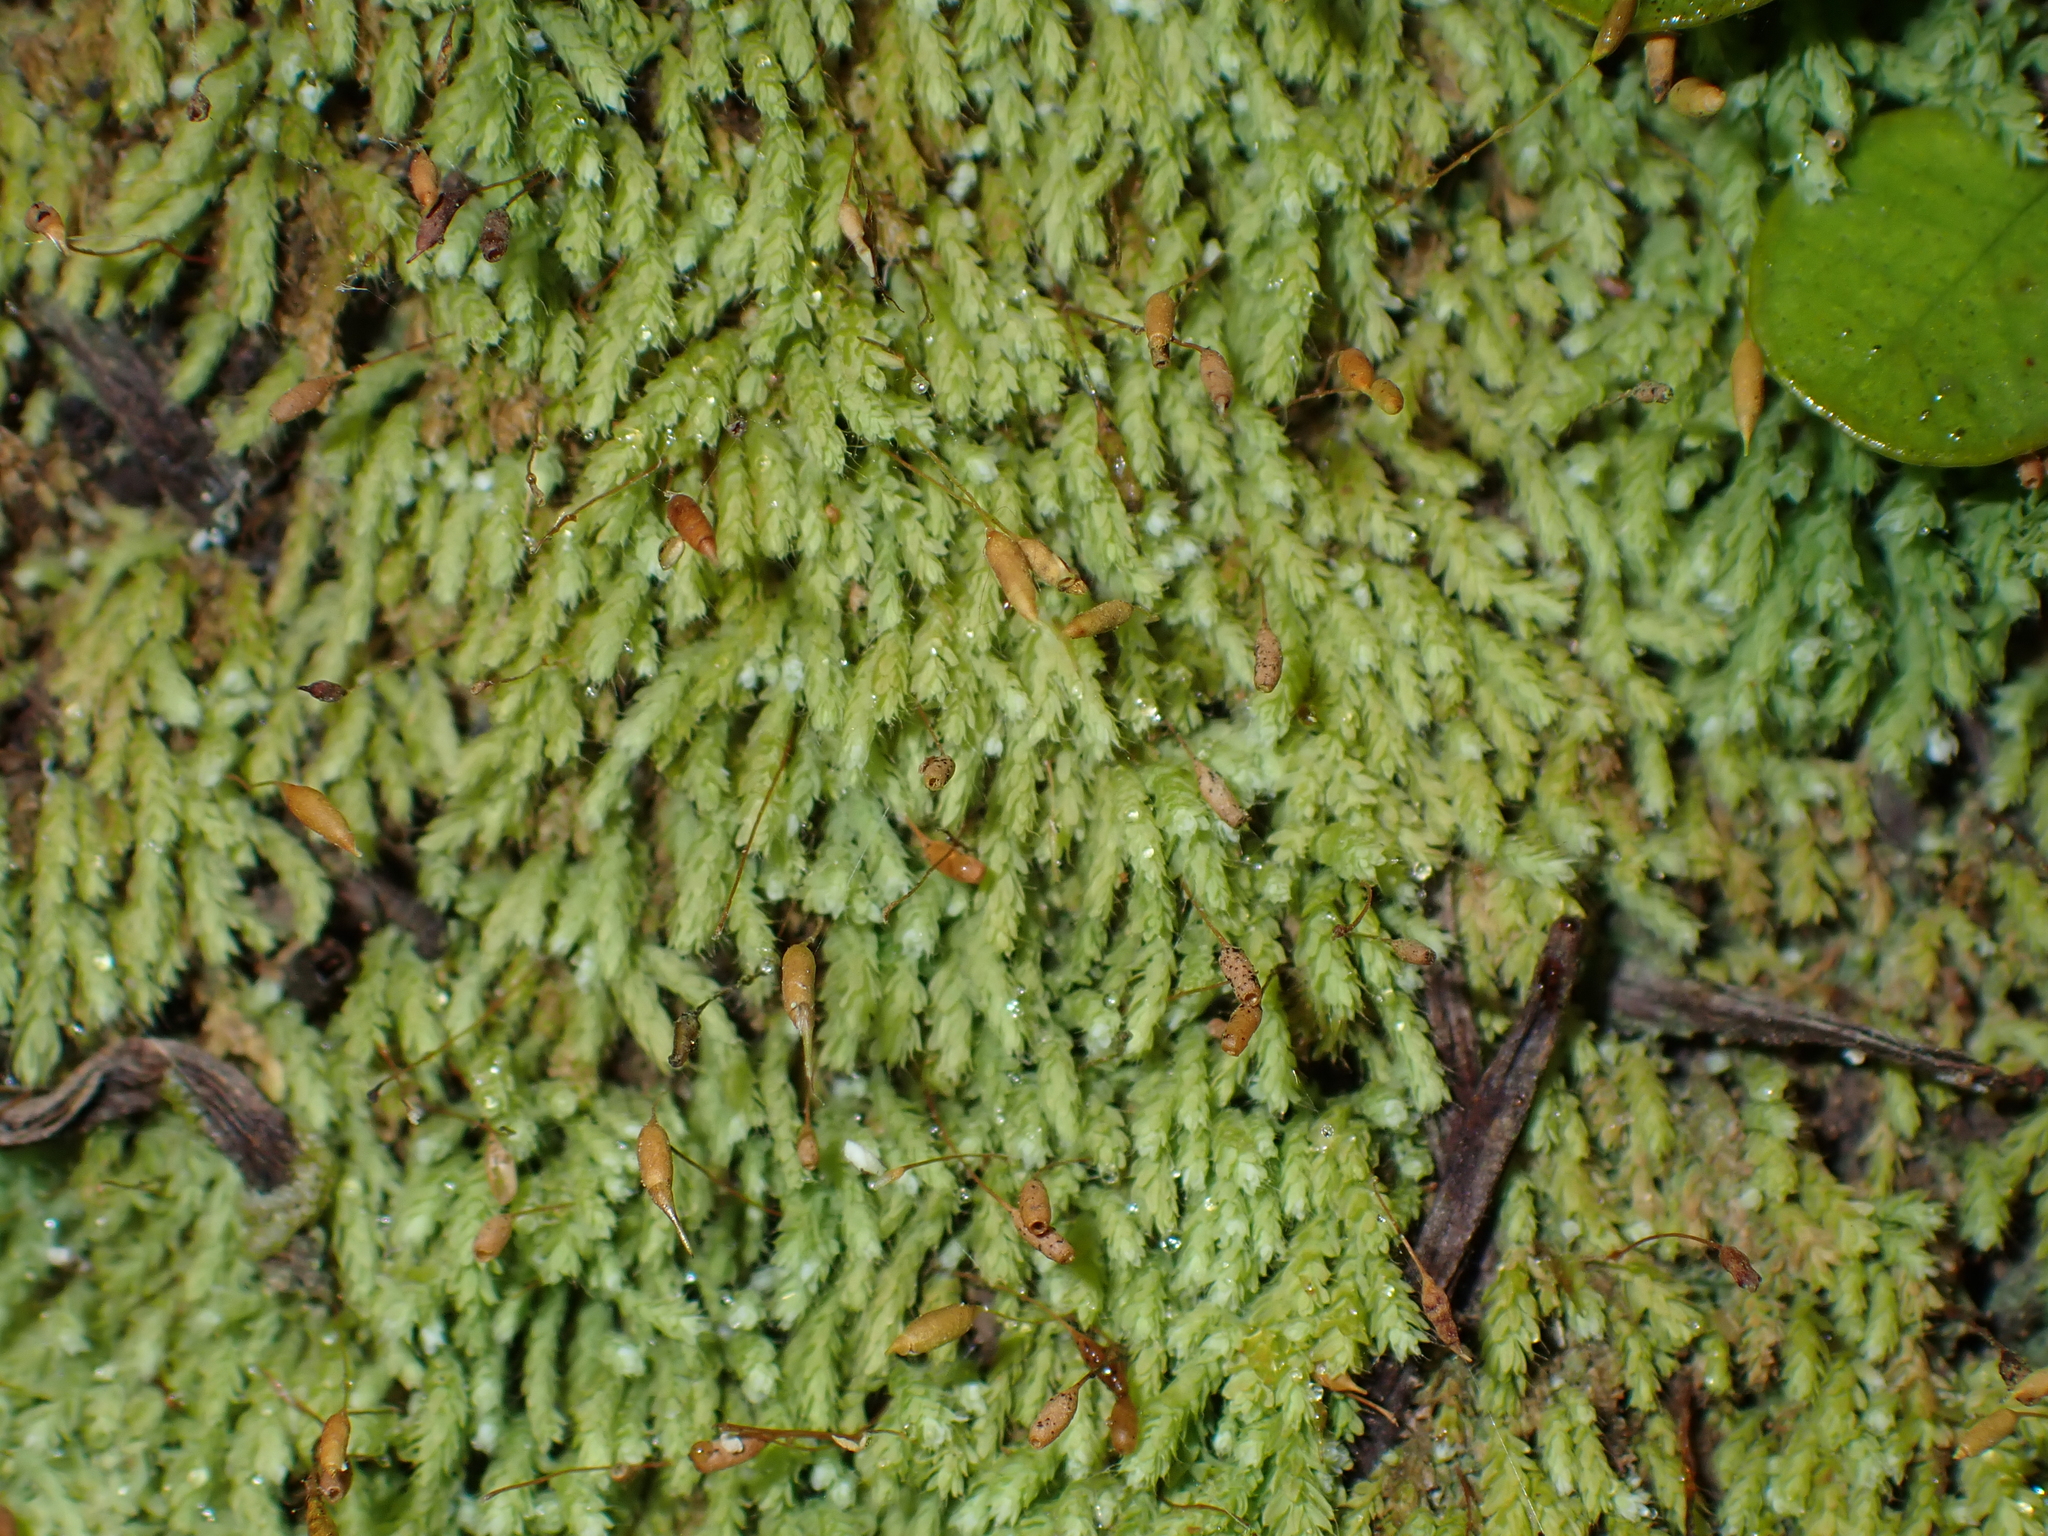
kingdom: Plantae
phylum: Bryophyta
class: Bryopsida
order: Orthodontiales
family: Orthodontiaceae
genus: Hymenodon
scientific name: Hymenodon pilifer
